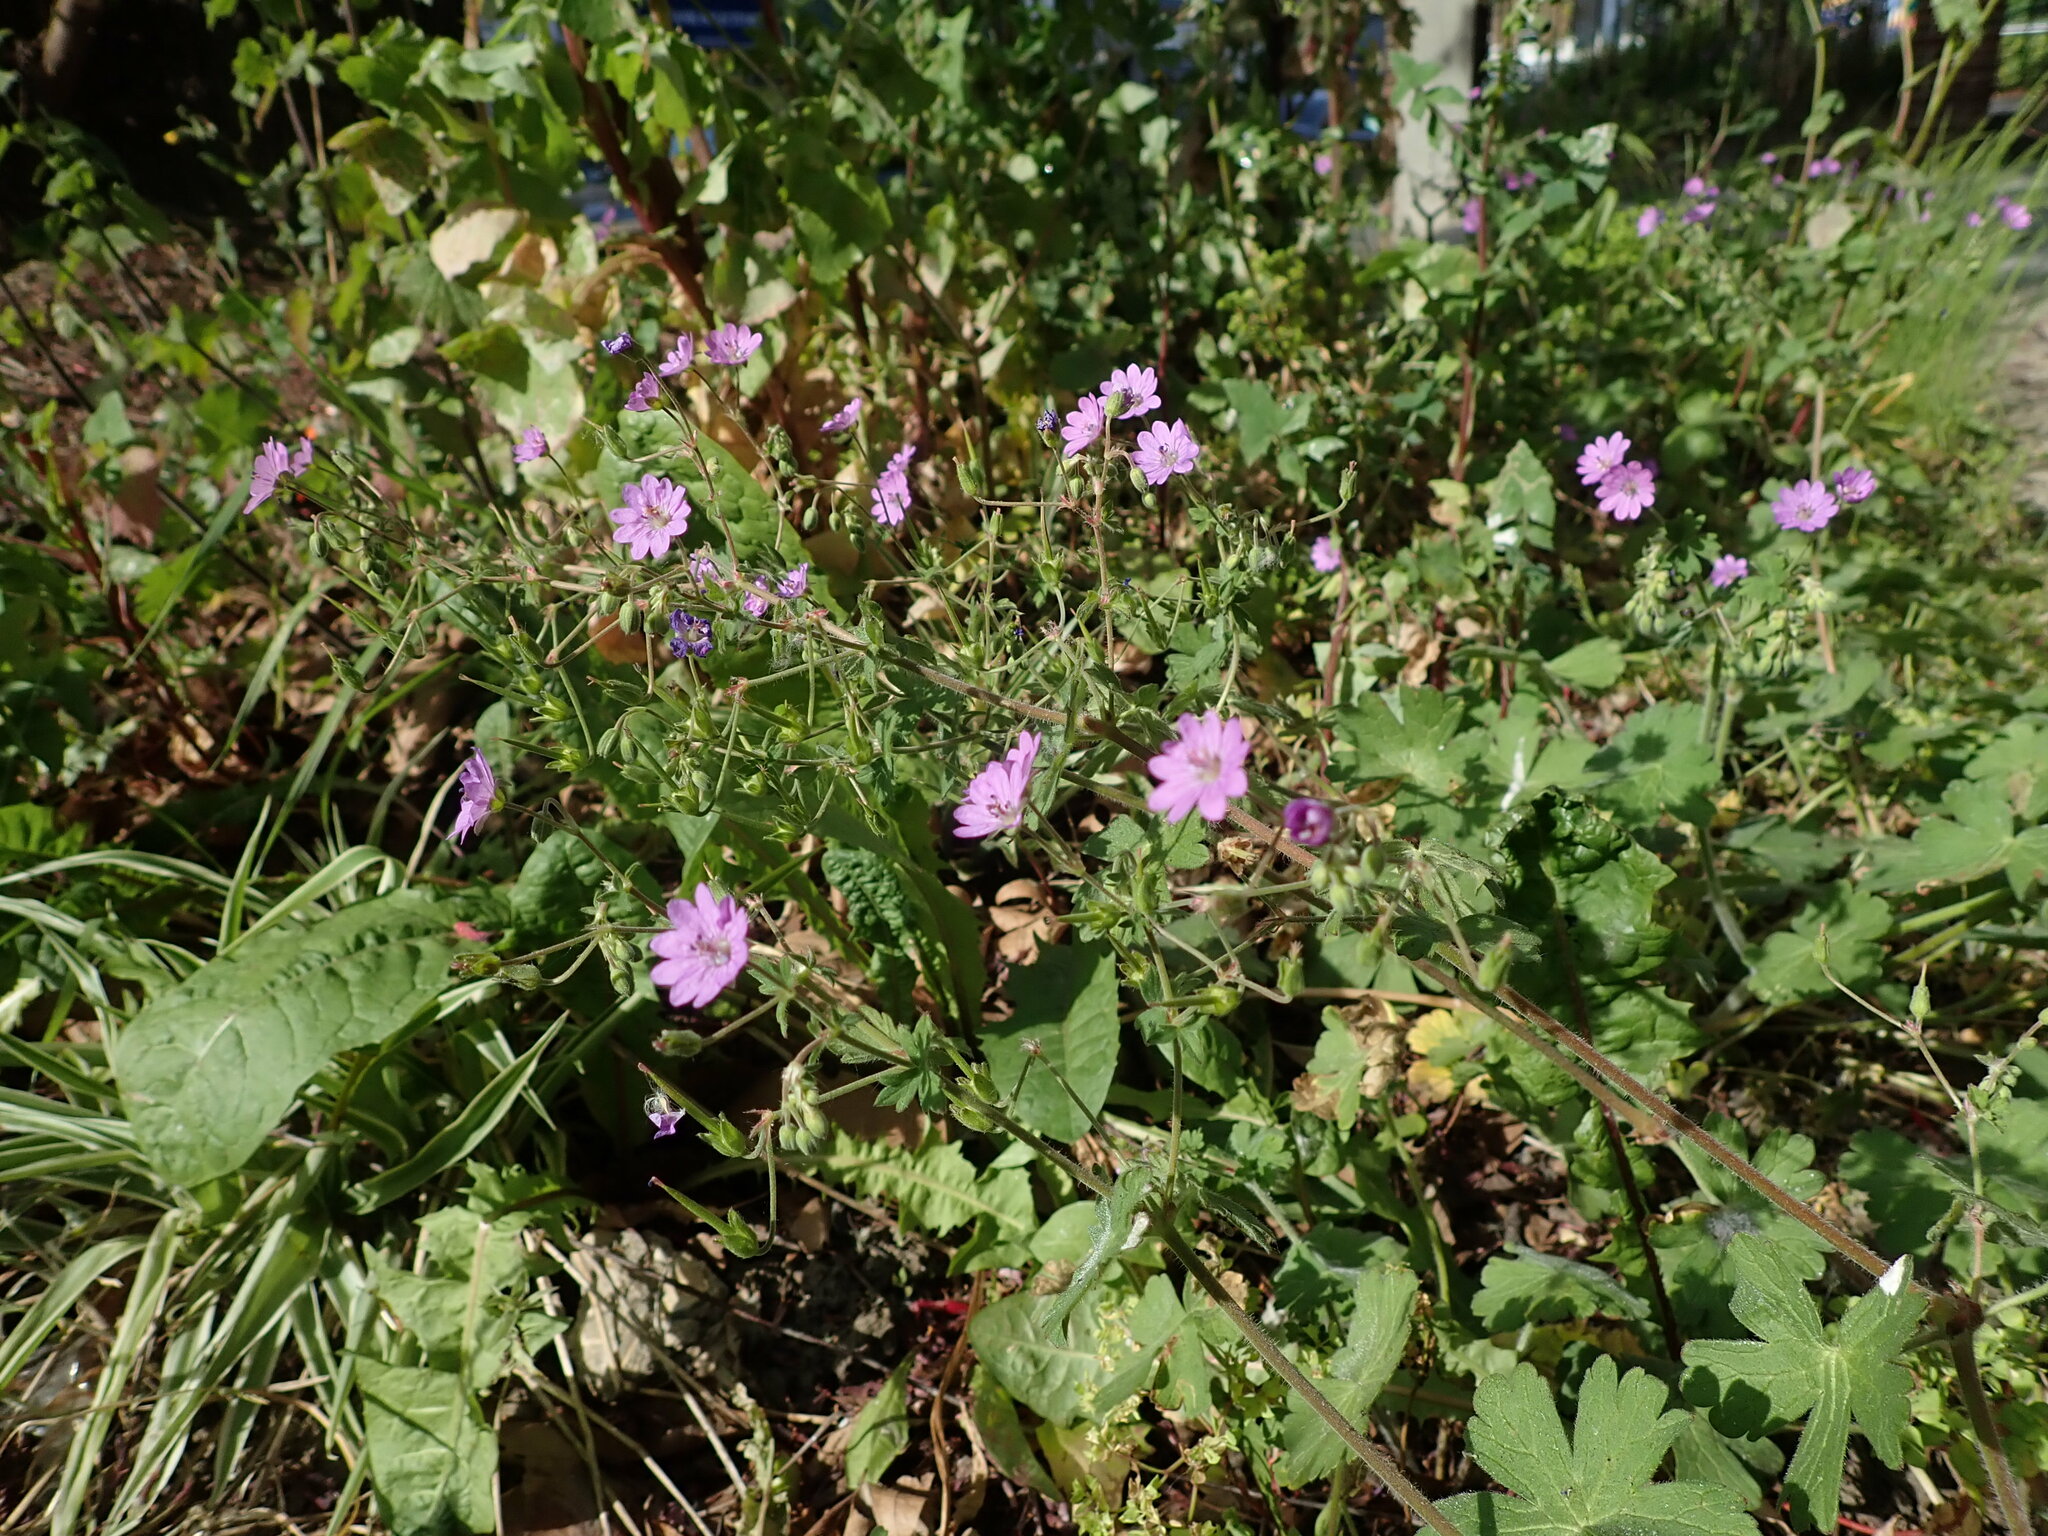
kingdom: Plantae
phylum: Tracheophyta
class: Magnoliopsida
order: Geraniales
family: Geraniaceae
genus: Geranium
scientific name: Geranium pyrenaicum
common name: Hedgerow crane's-bill
